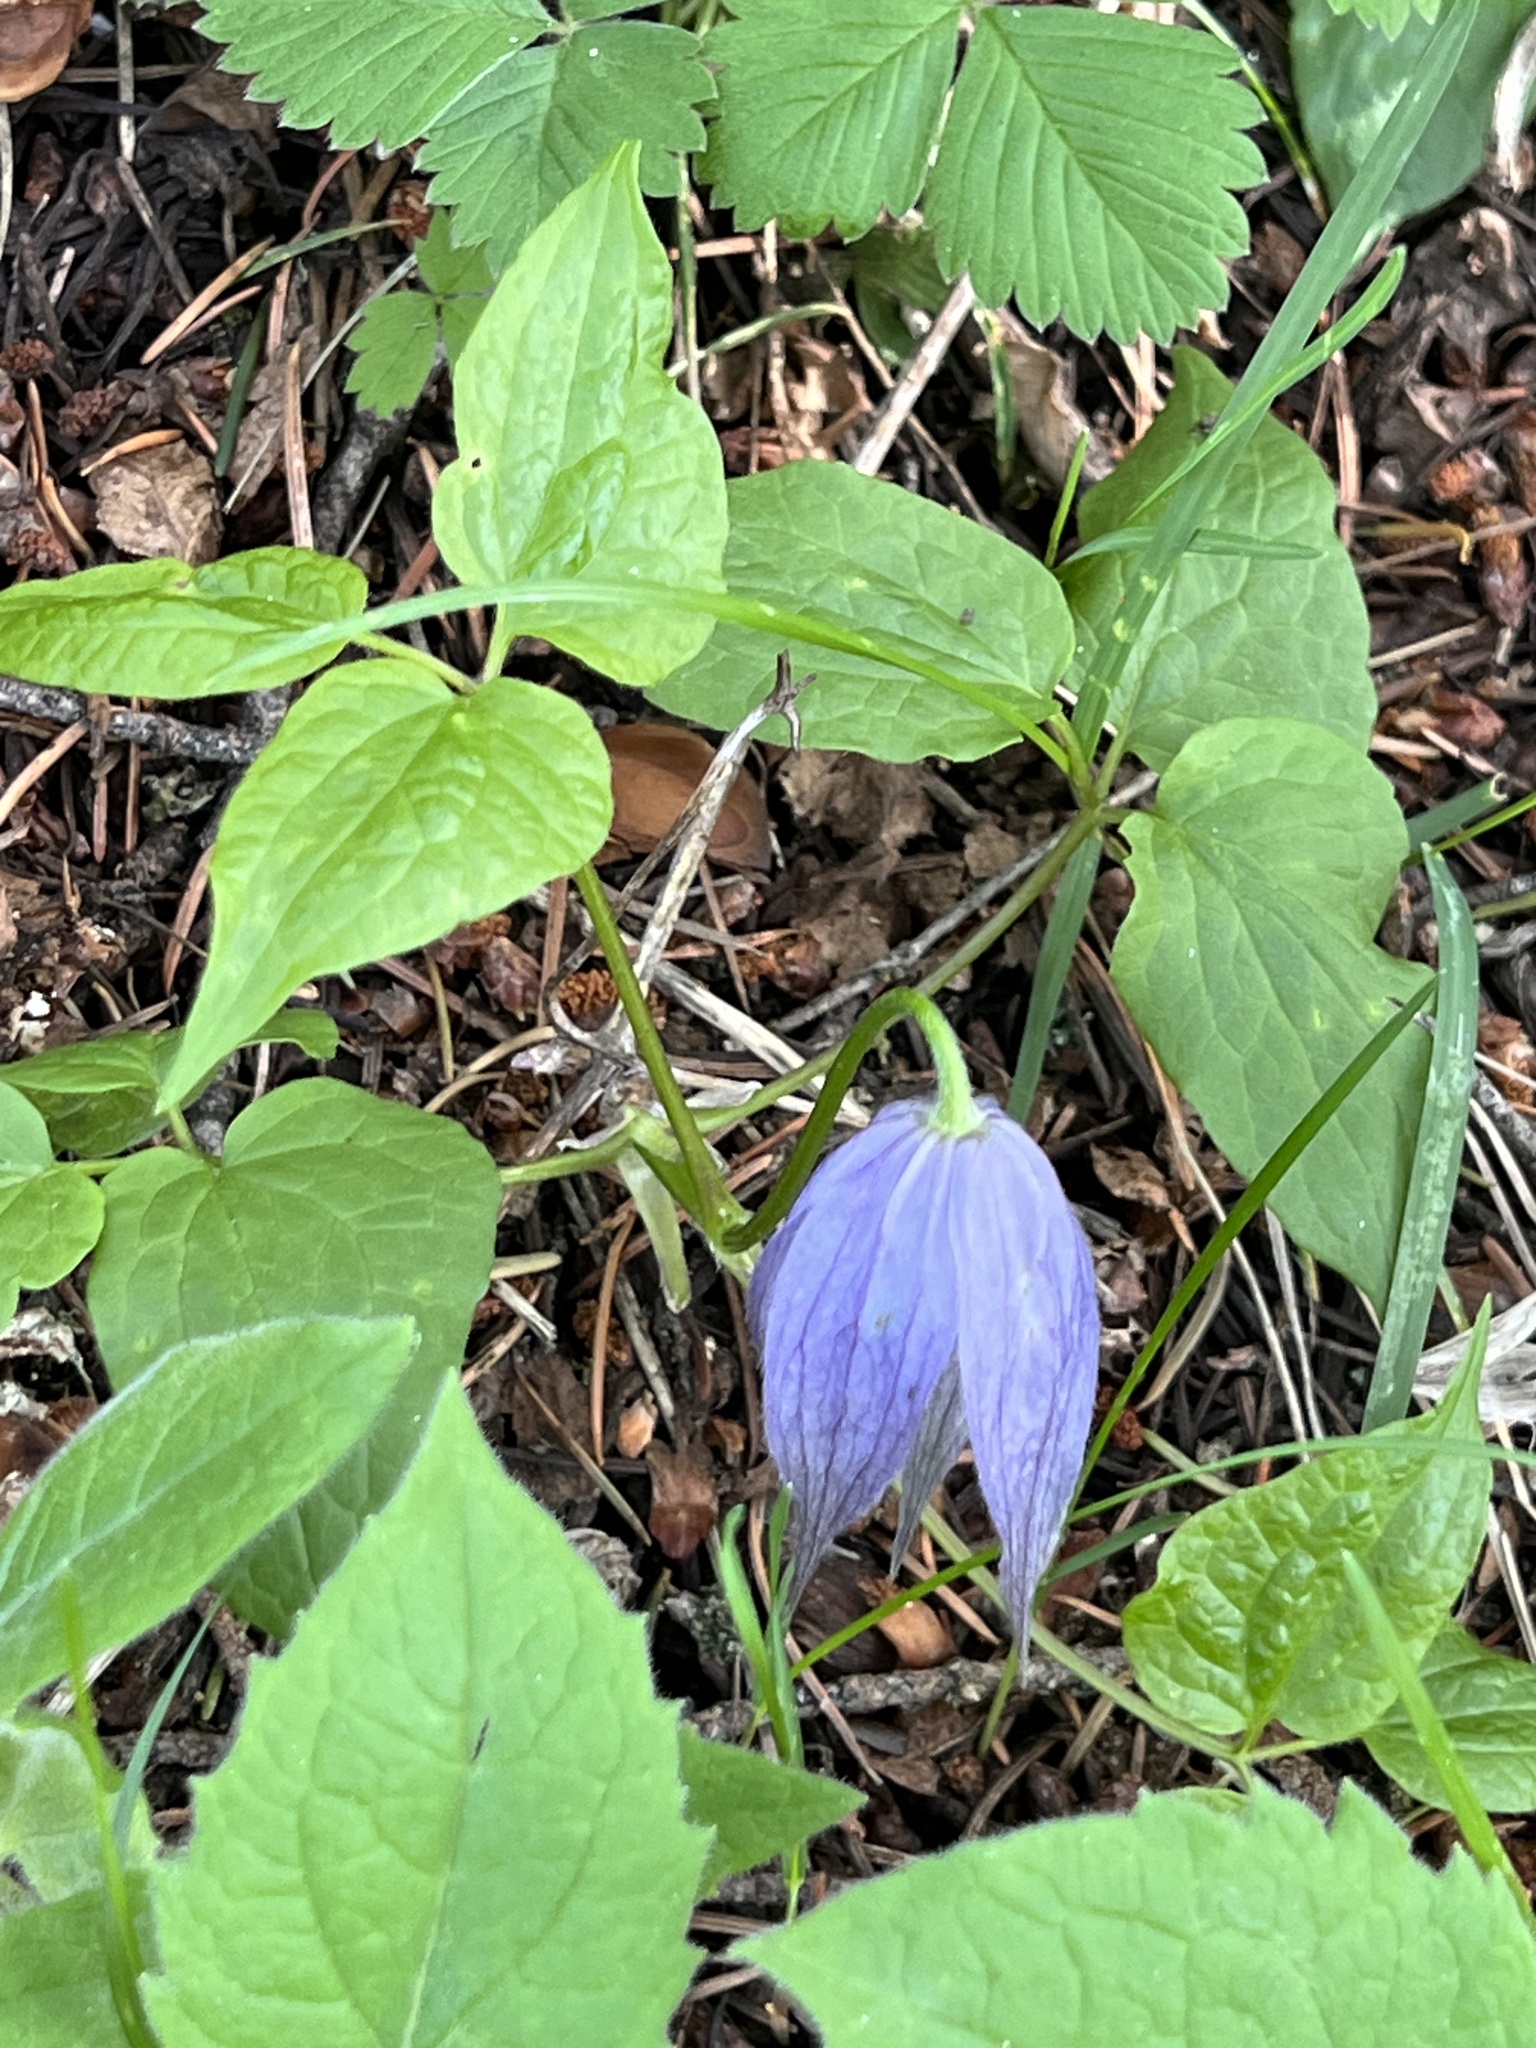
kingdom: Plantae
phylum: Tracheophyta
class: Magnoliopsida
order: Ranunculales
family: Ranunculaceae
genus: Clematis
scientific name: Clematis occidentalis
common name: Purple clematis
